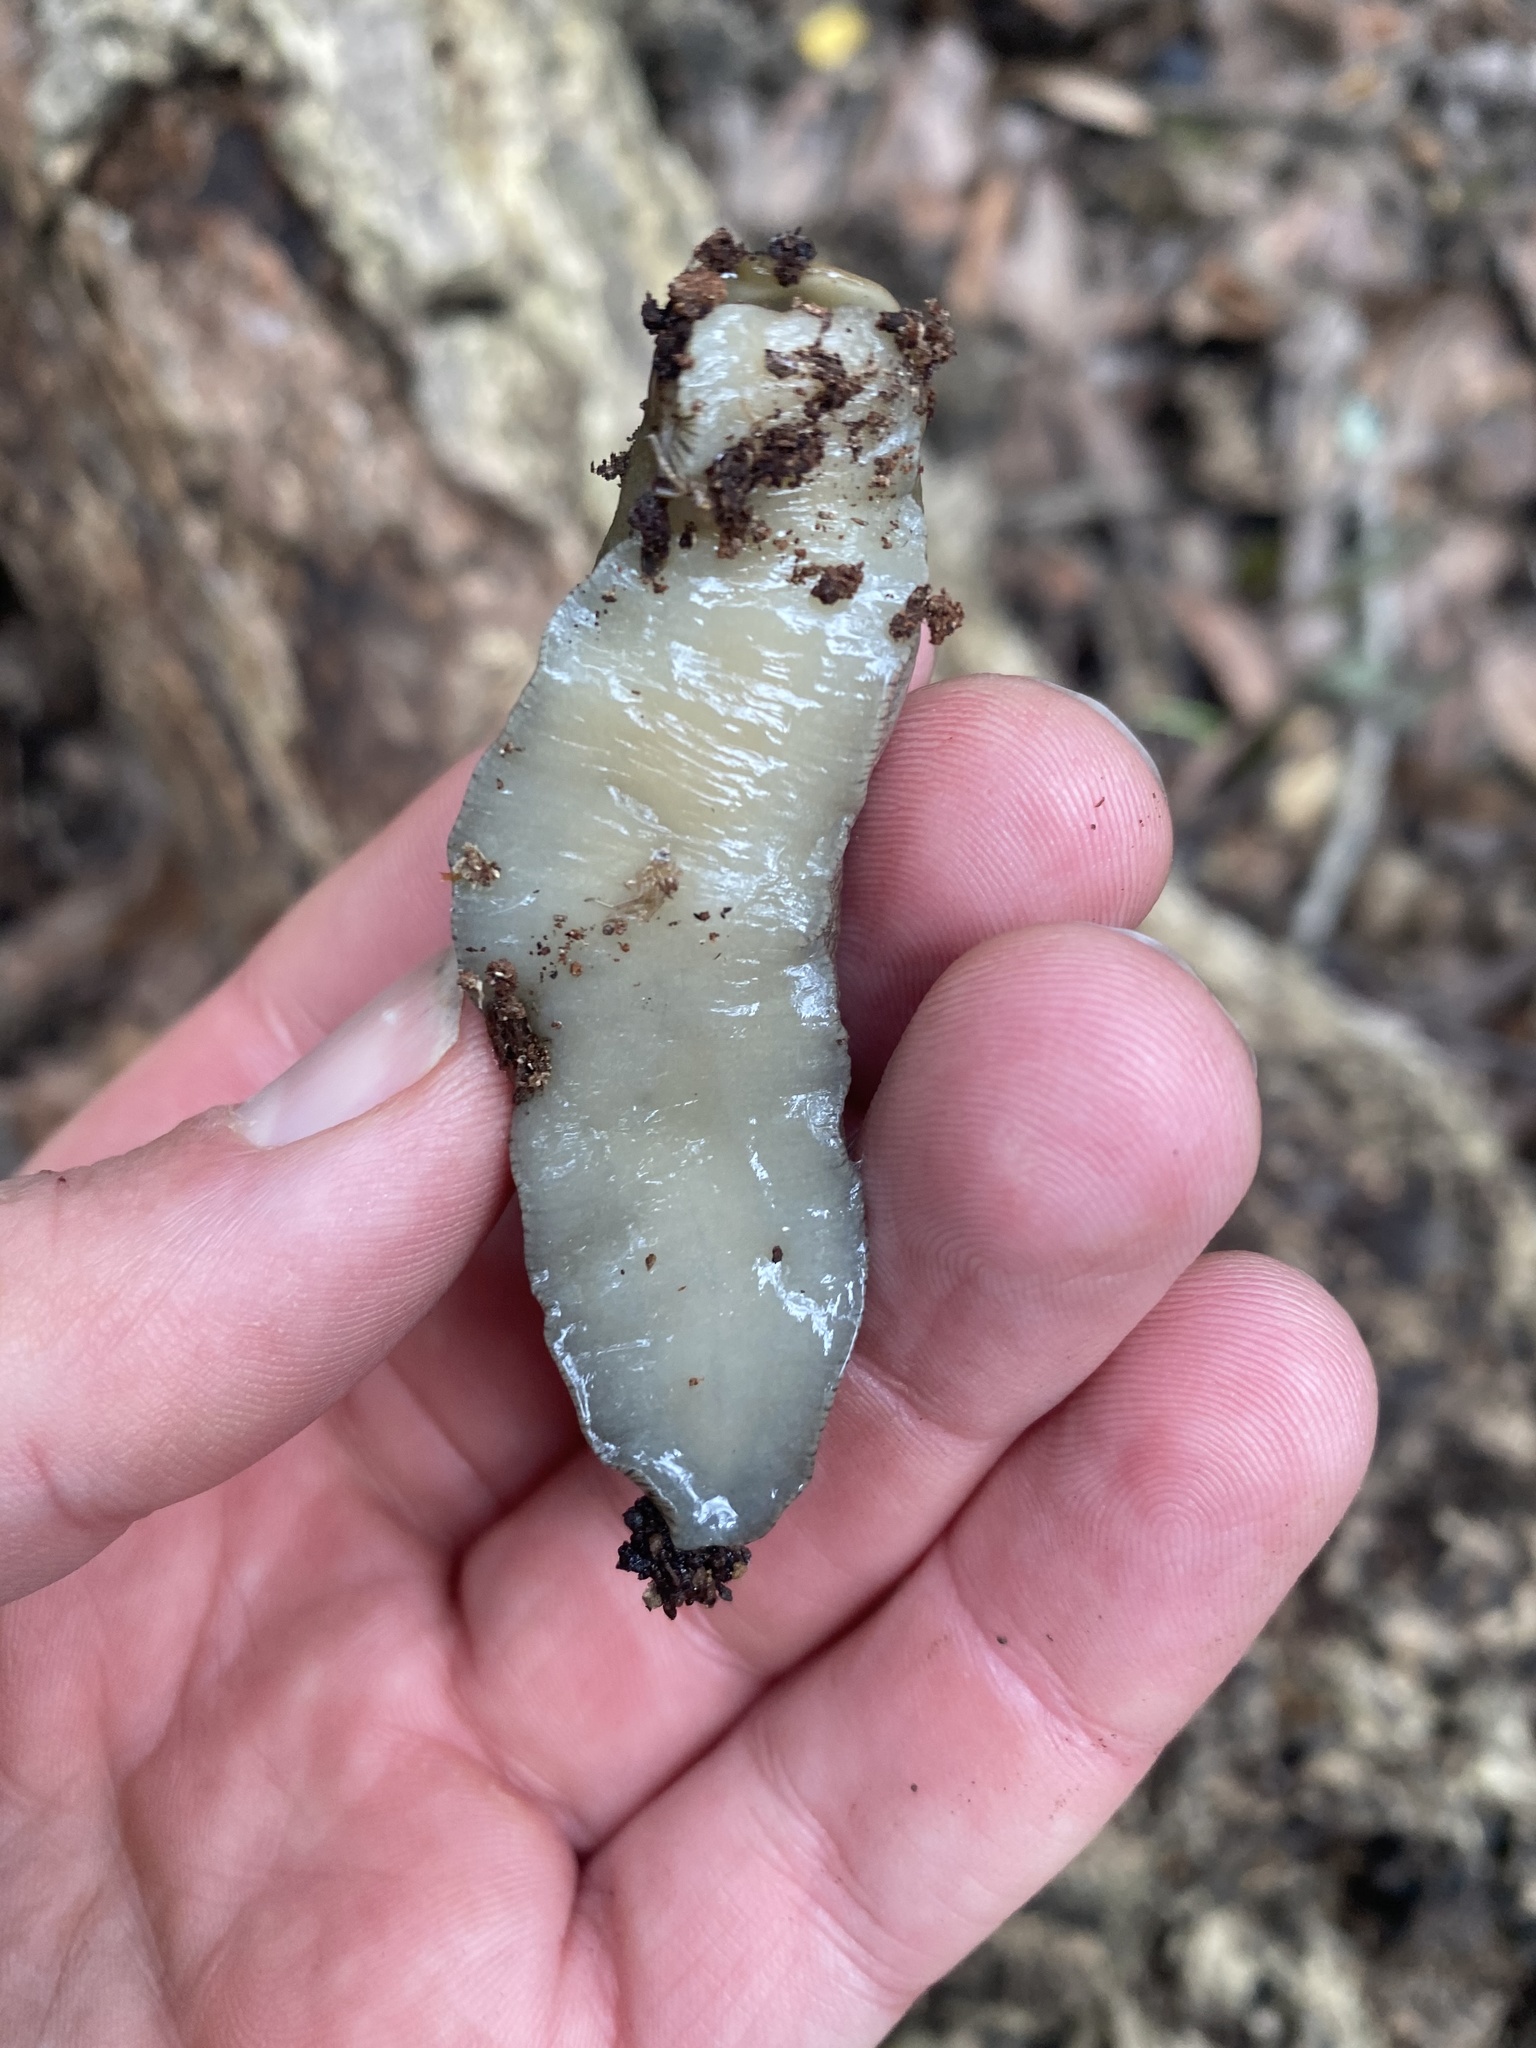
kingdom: Animalia
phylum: Mollusca
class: Gastropoda
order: Stylommatophora
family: Ariolimacidae
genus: Ariolimax
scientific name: Ariolimax buttoni
